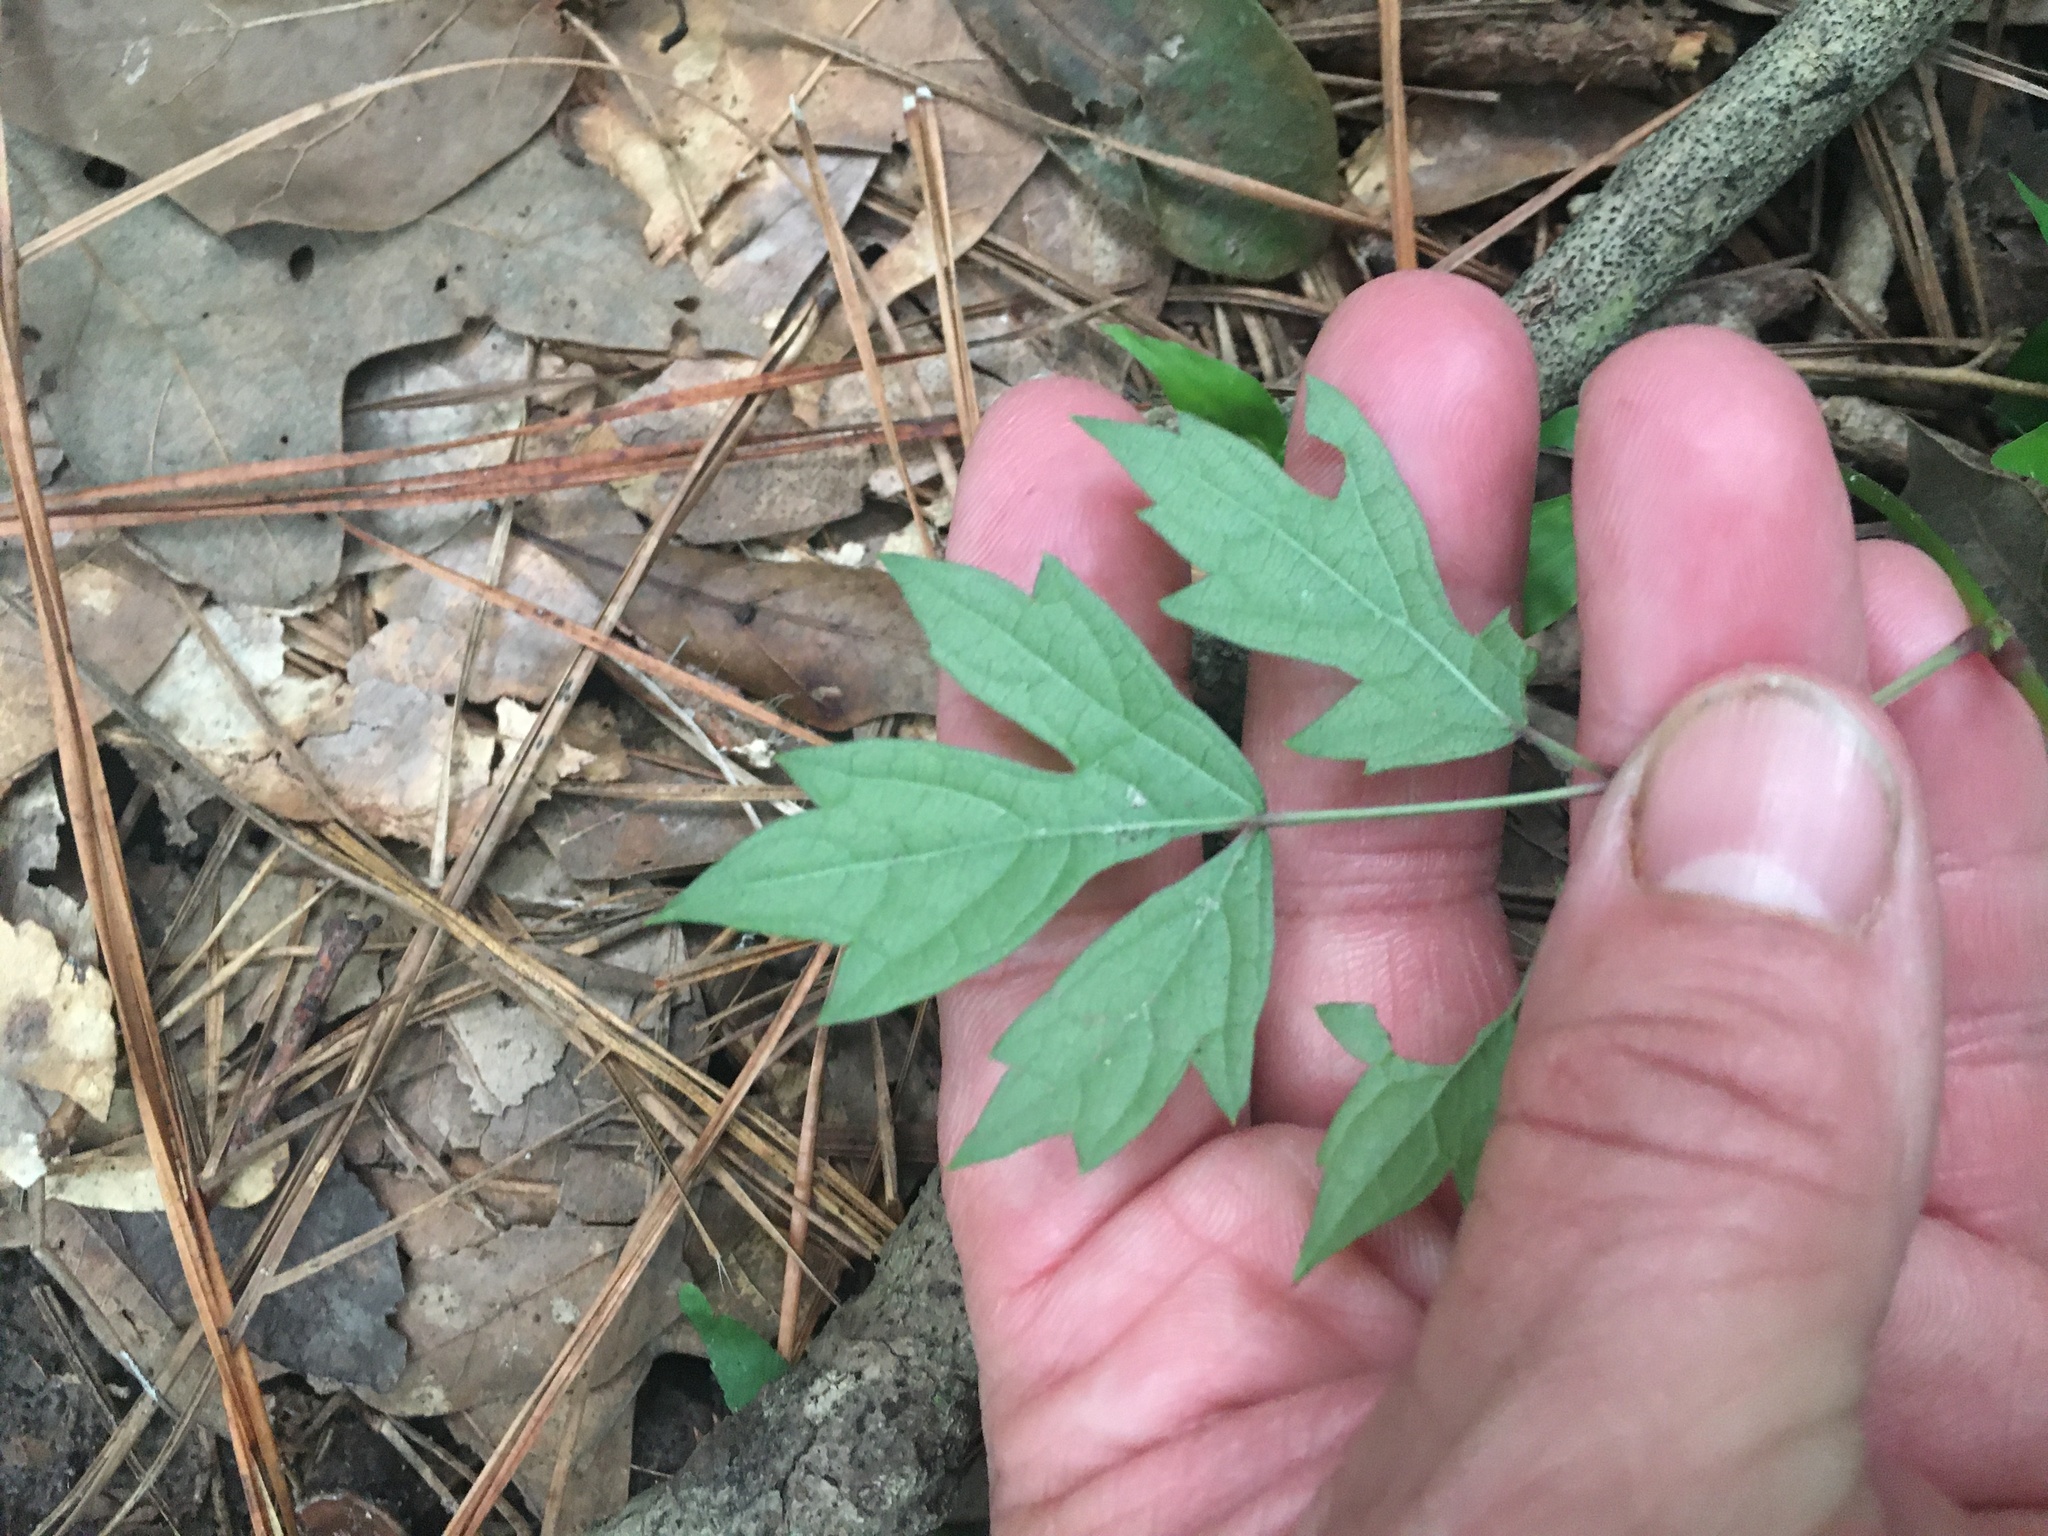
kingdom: Plantae
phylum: Tracheophyta
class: Magnoliopsida
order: Vitales
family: Vitaceae
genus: Nekemias
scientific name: Nekemias arborea
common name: Peppervine
